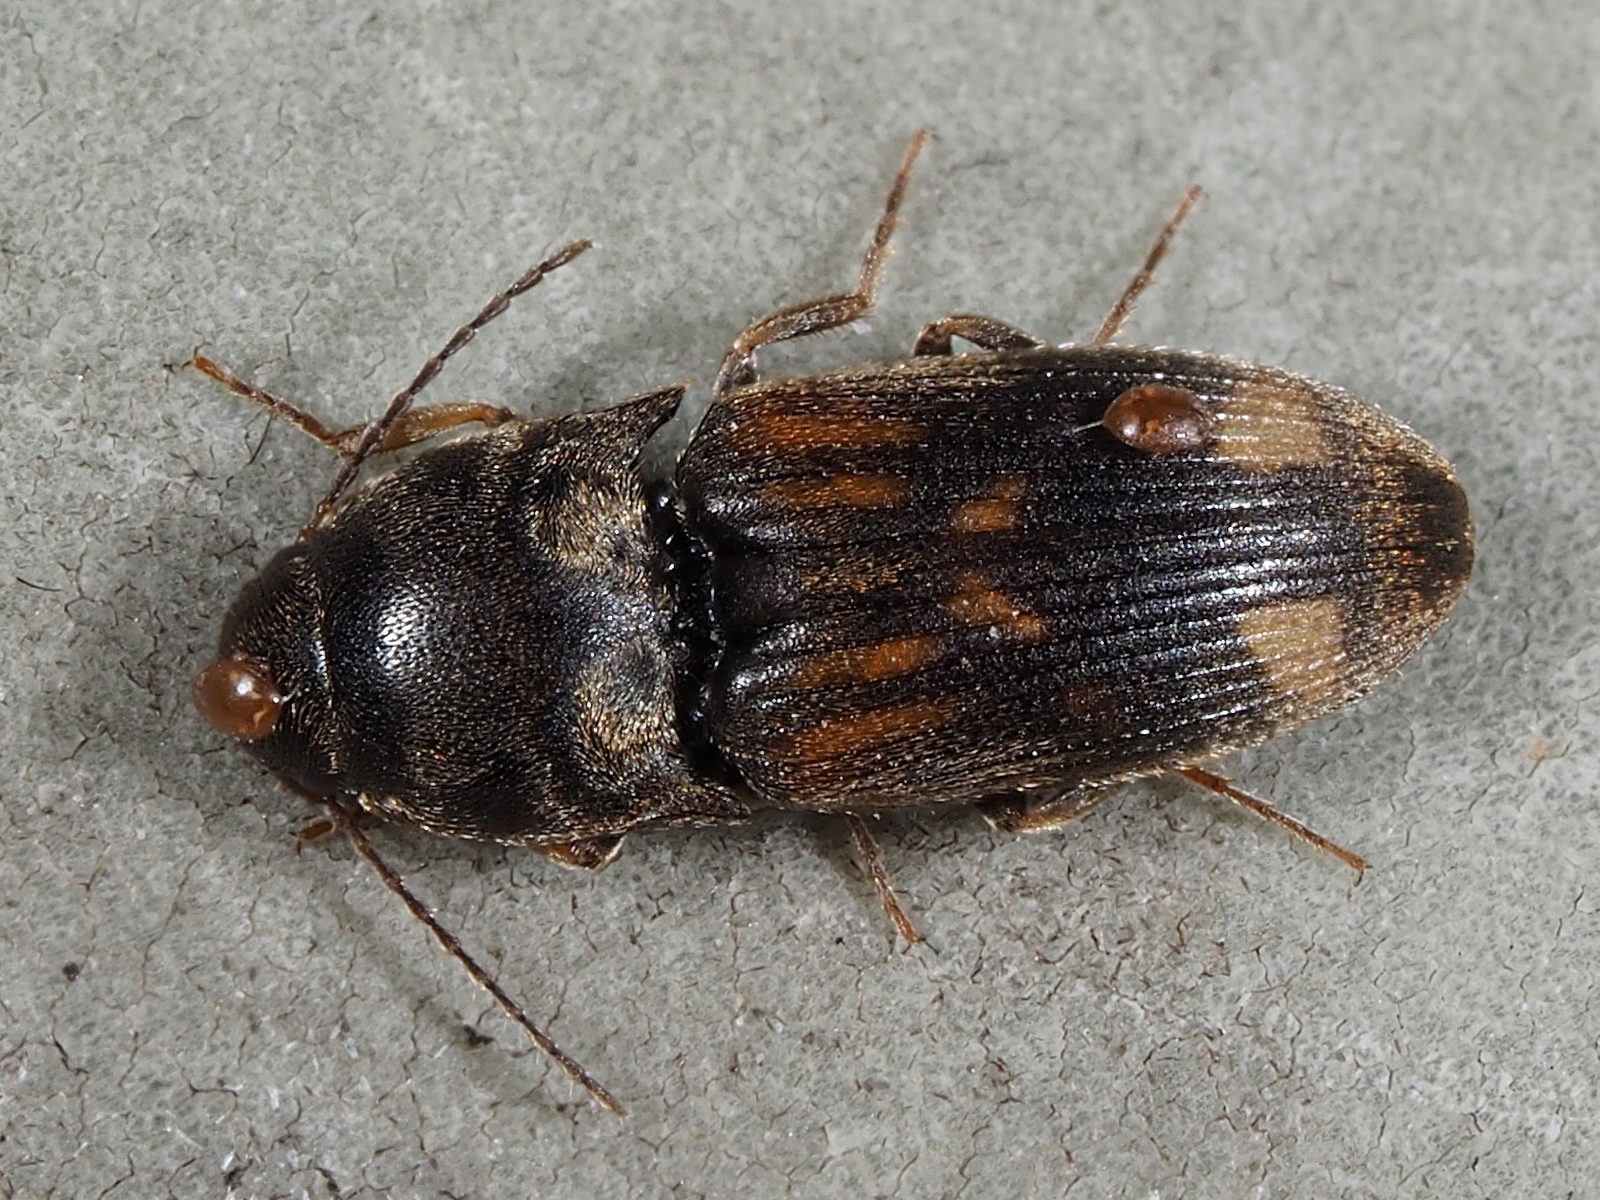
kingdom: Animalia
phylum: Arthropoda
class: Insecta
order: Coleoptera
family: Elateridae
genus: Drasterius
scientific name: Drasterius bimaculatus
